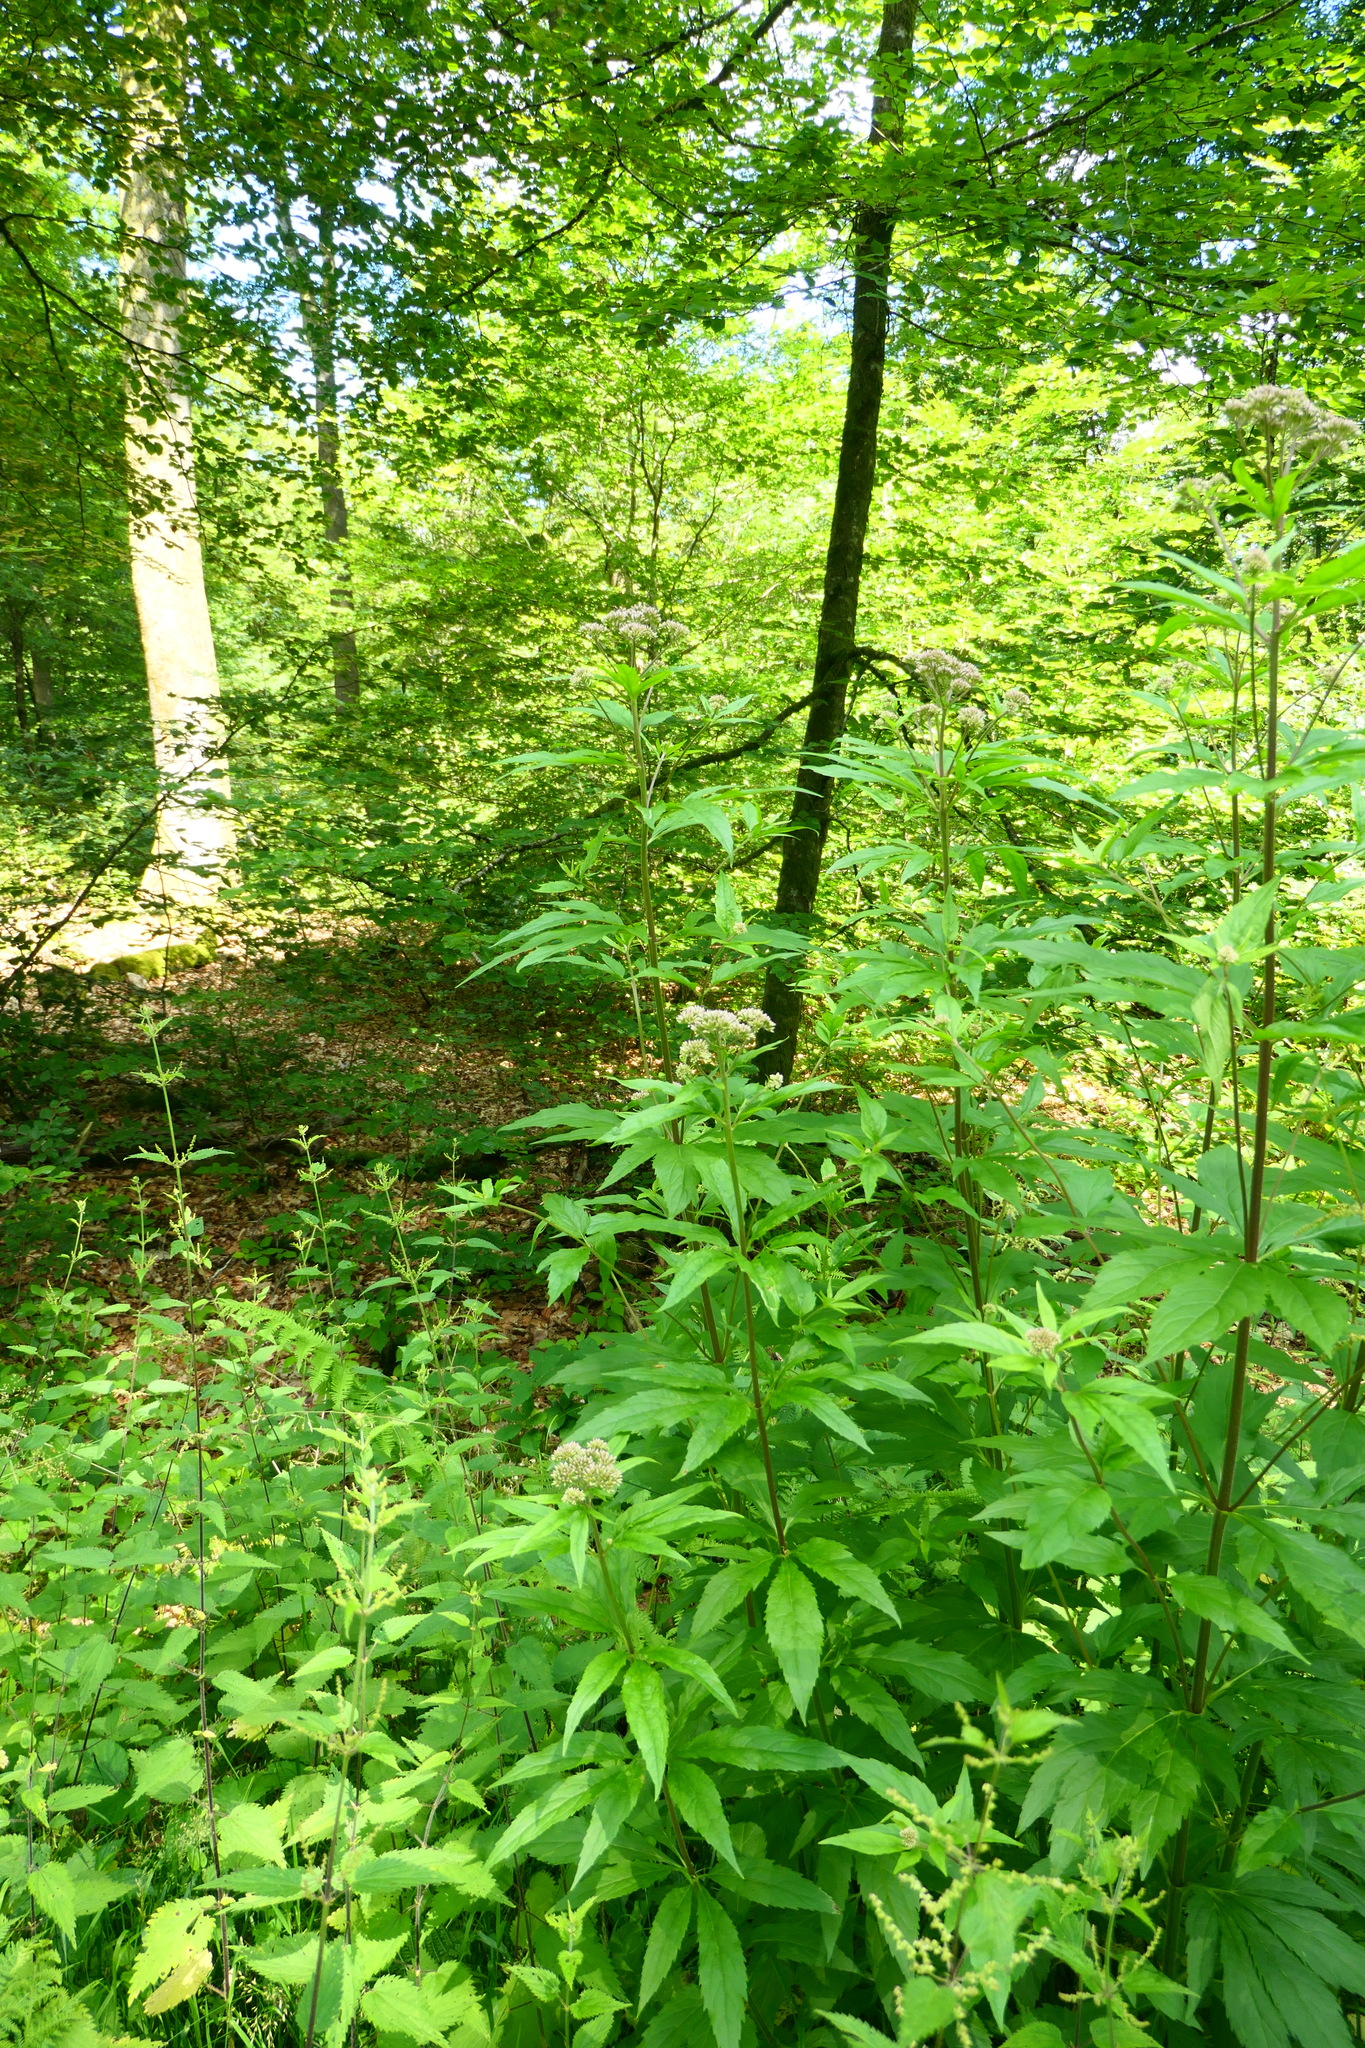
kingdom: Plantae
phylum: Tracheophyta
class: Magnoliopsida
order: Asterales
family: Asteraceae
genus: Eupatorium
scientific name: Eupatorium cannabinum
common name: Hemp-agrimony
